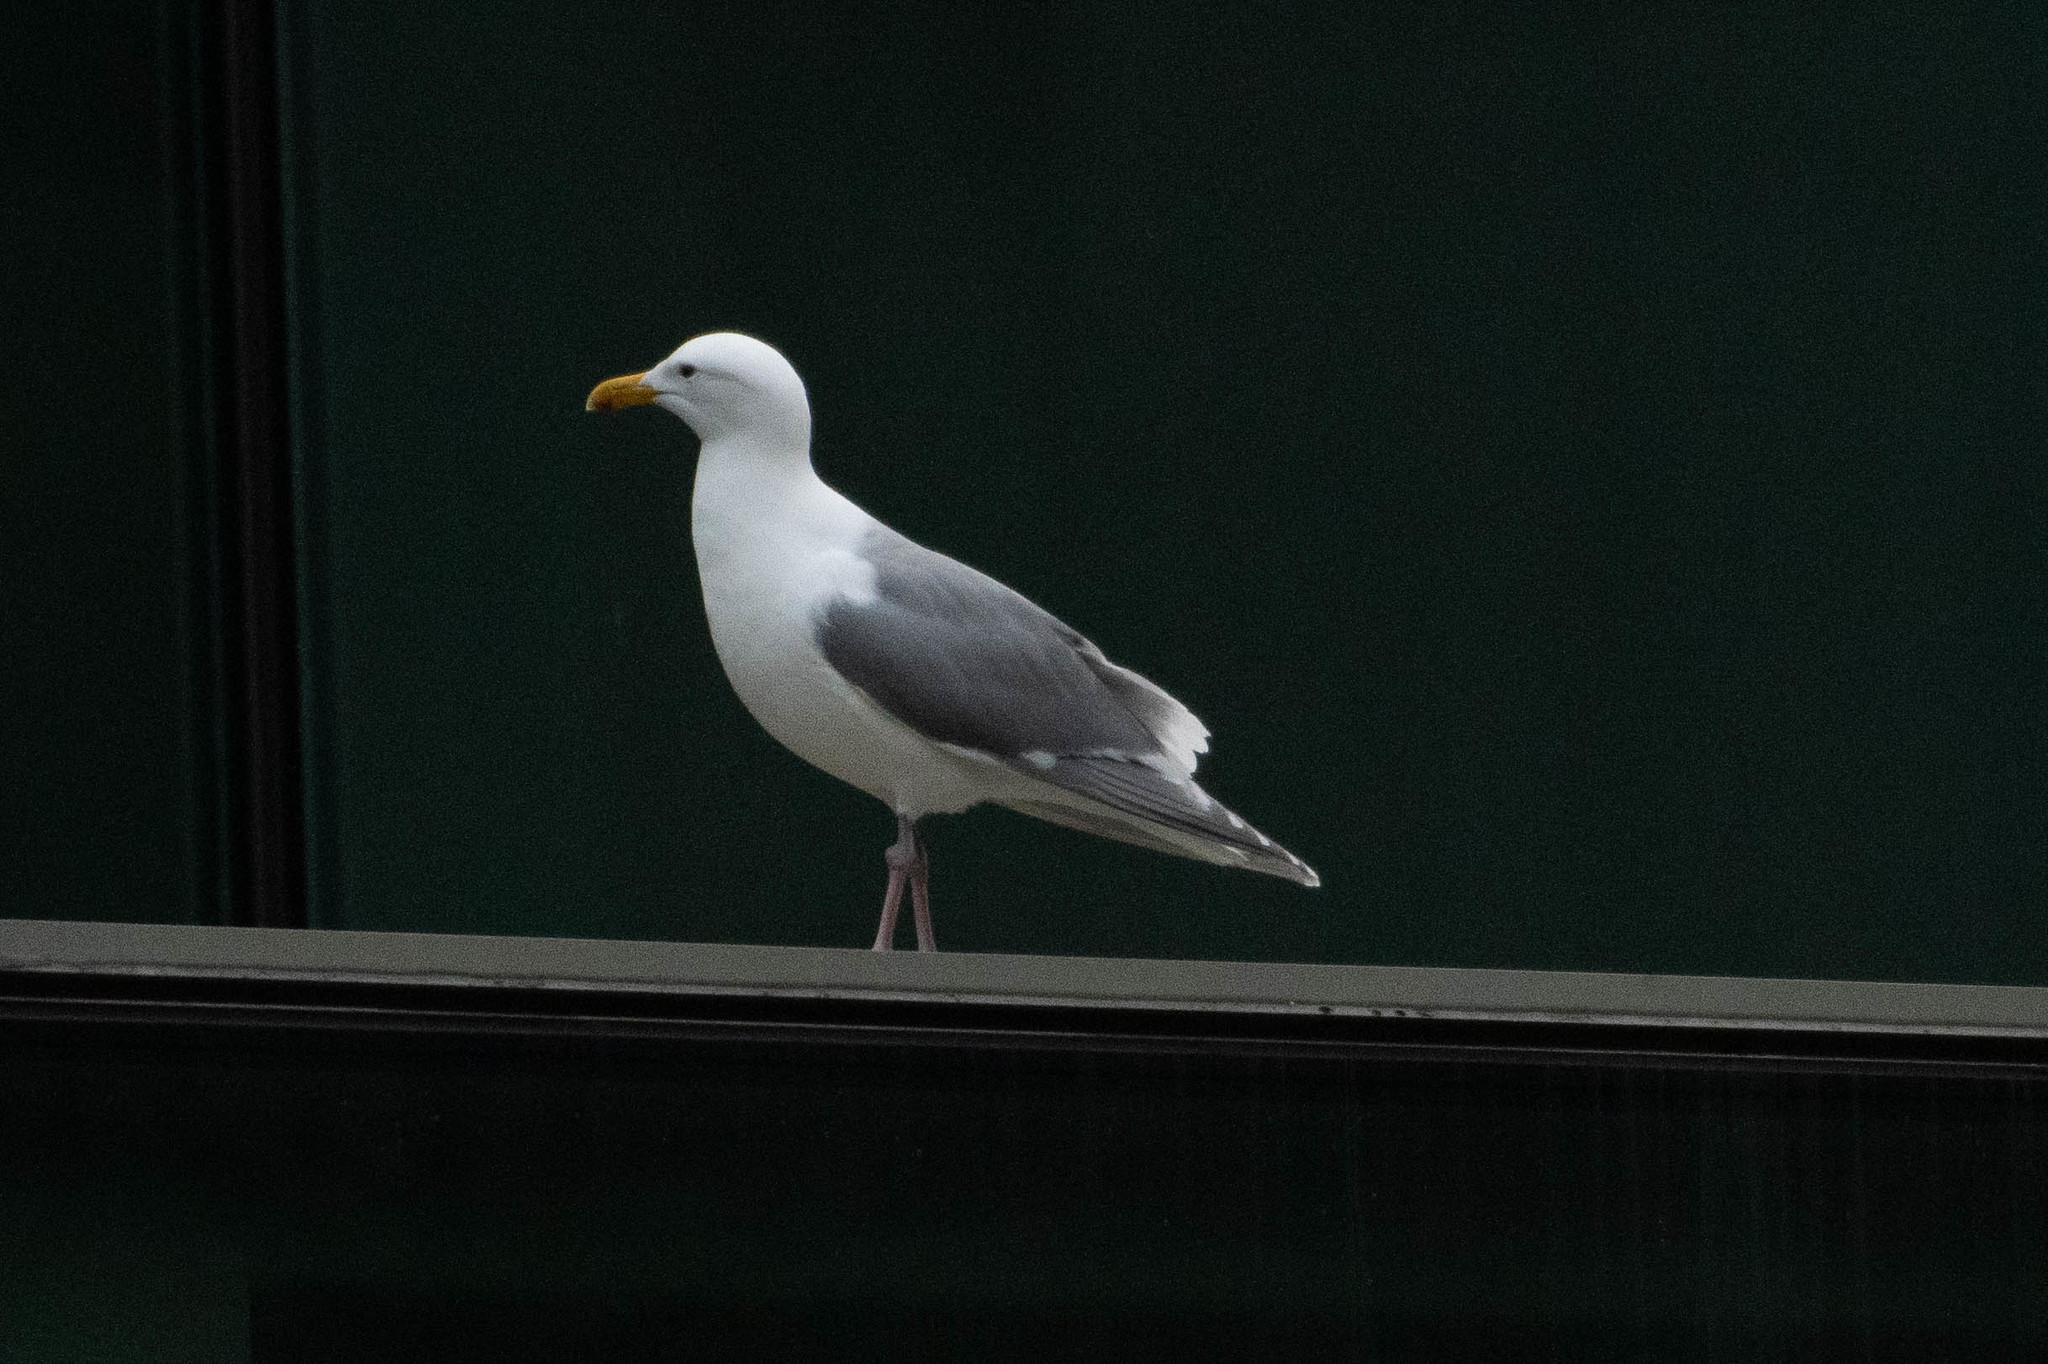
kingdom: Animalia
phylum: Chordata
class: Aves
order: Charadriiformes
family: Laridae
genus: Larus
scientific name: Larus
